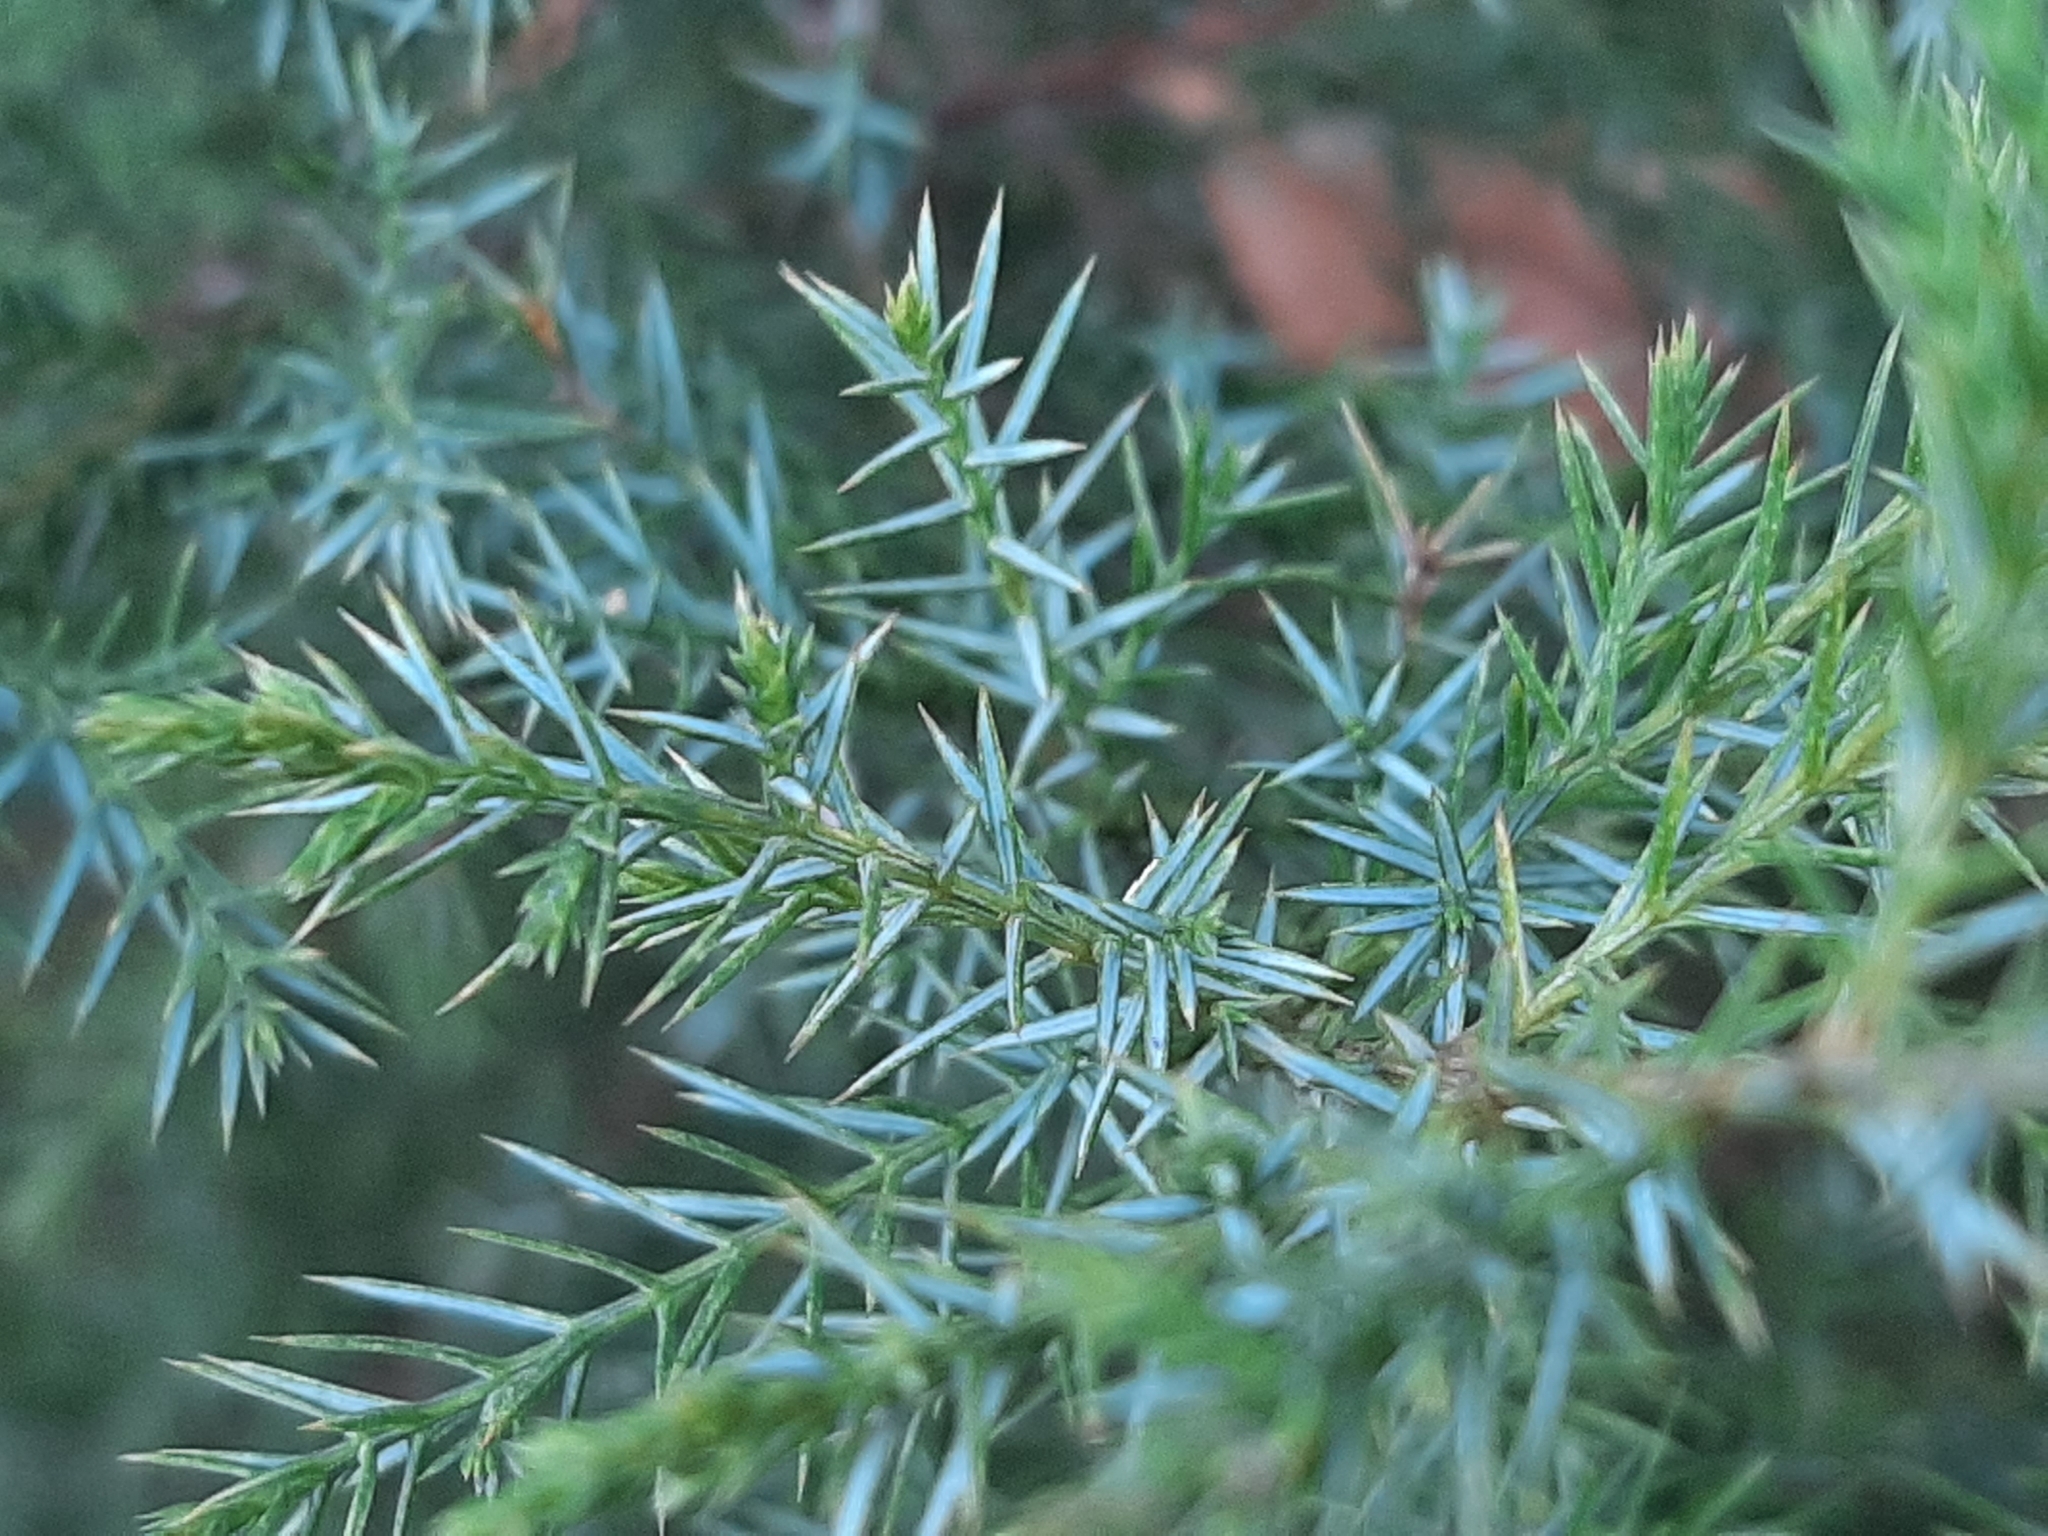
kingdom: Plantae
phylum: Tracheophyta
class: Pinopsida
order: Pinales
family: Cupressaceae
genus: Juniperus
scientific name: Juniperus virginiana
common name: Red juniper
